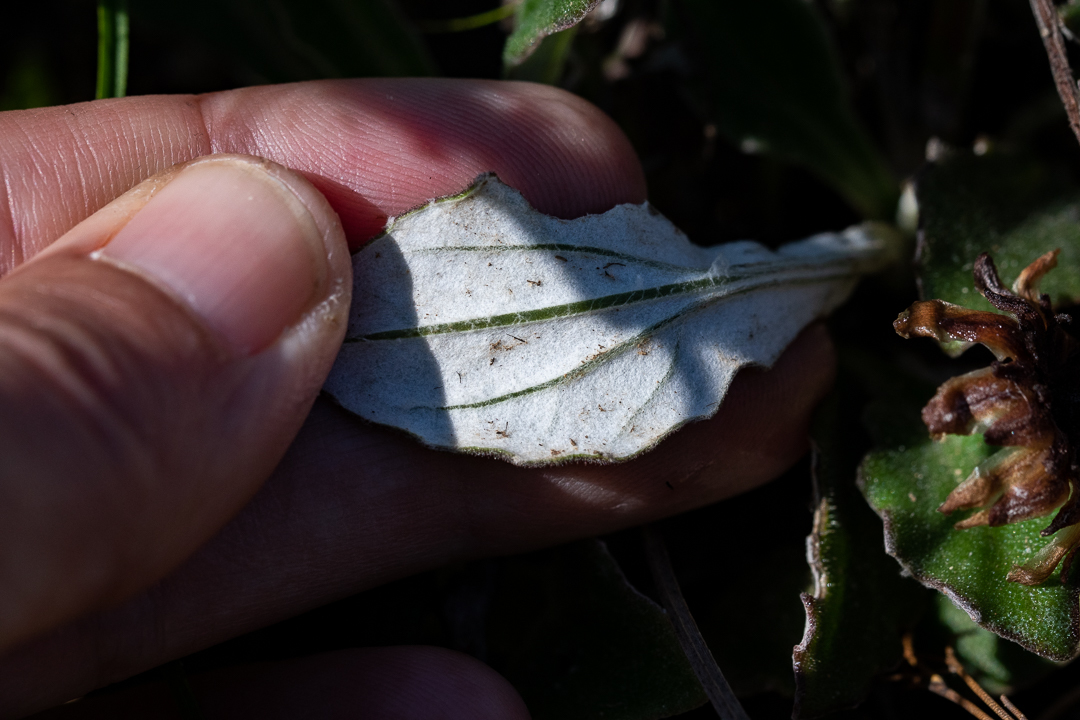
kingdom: Plantae
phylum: Tracheophyta
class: Magnoliopsida
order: Asterales
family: Asteraceae
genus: Haplocarpha
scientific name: Haplocarpha lanata
